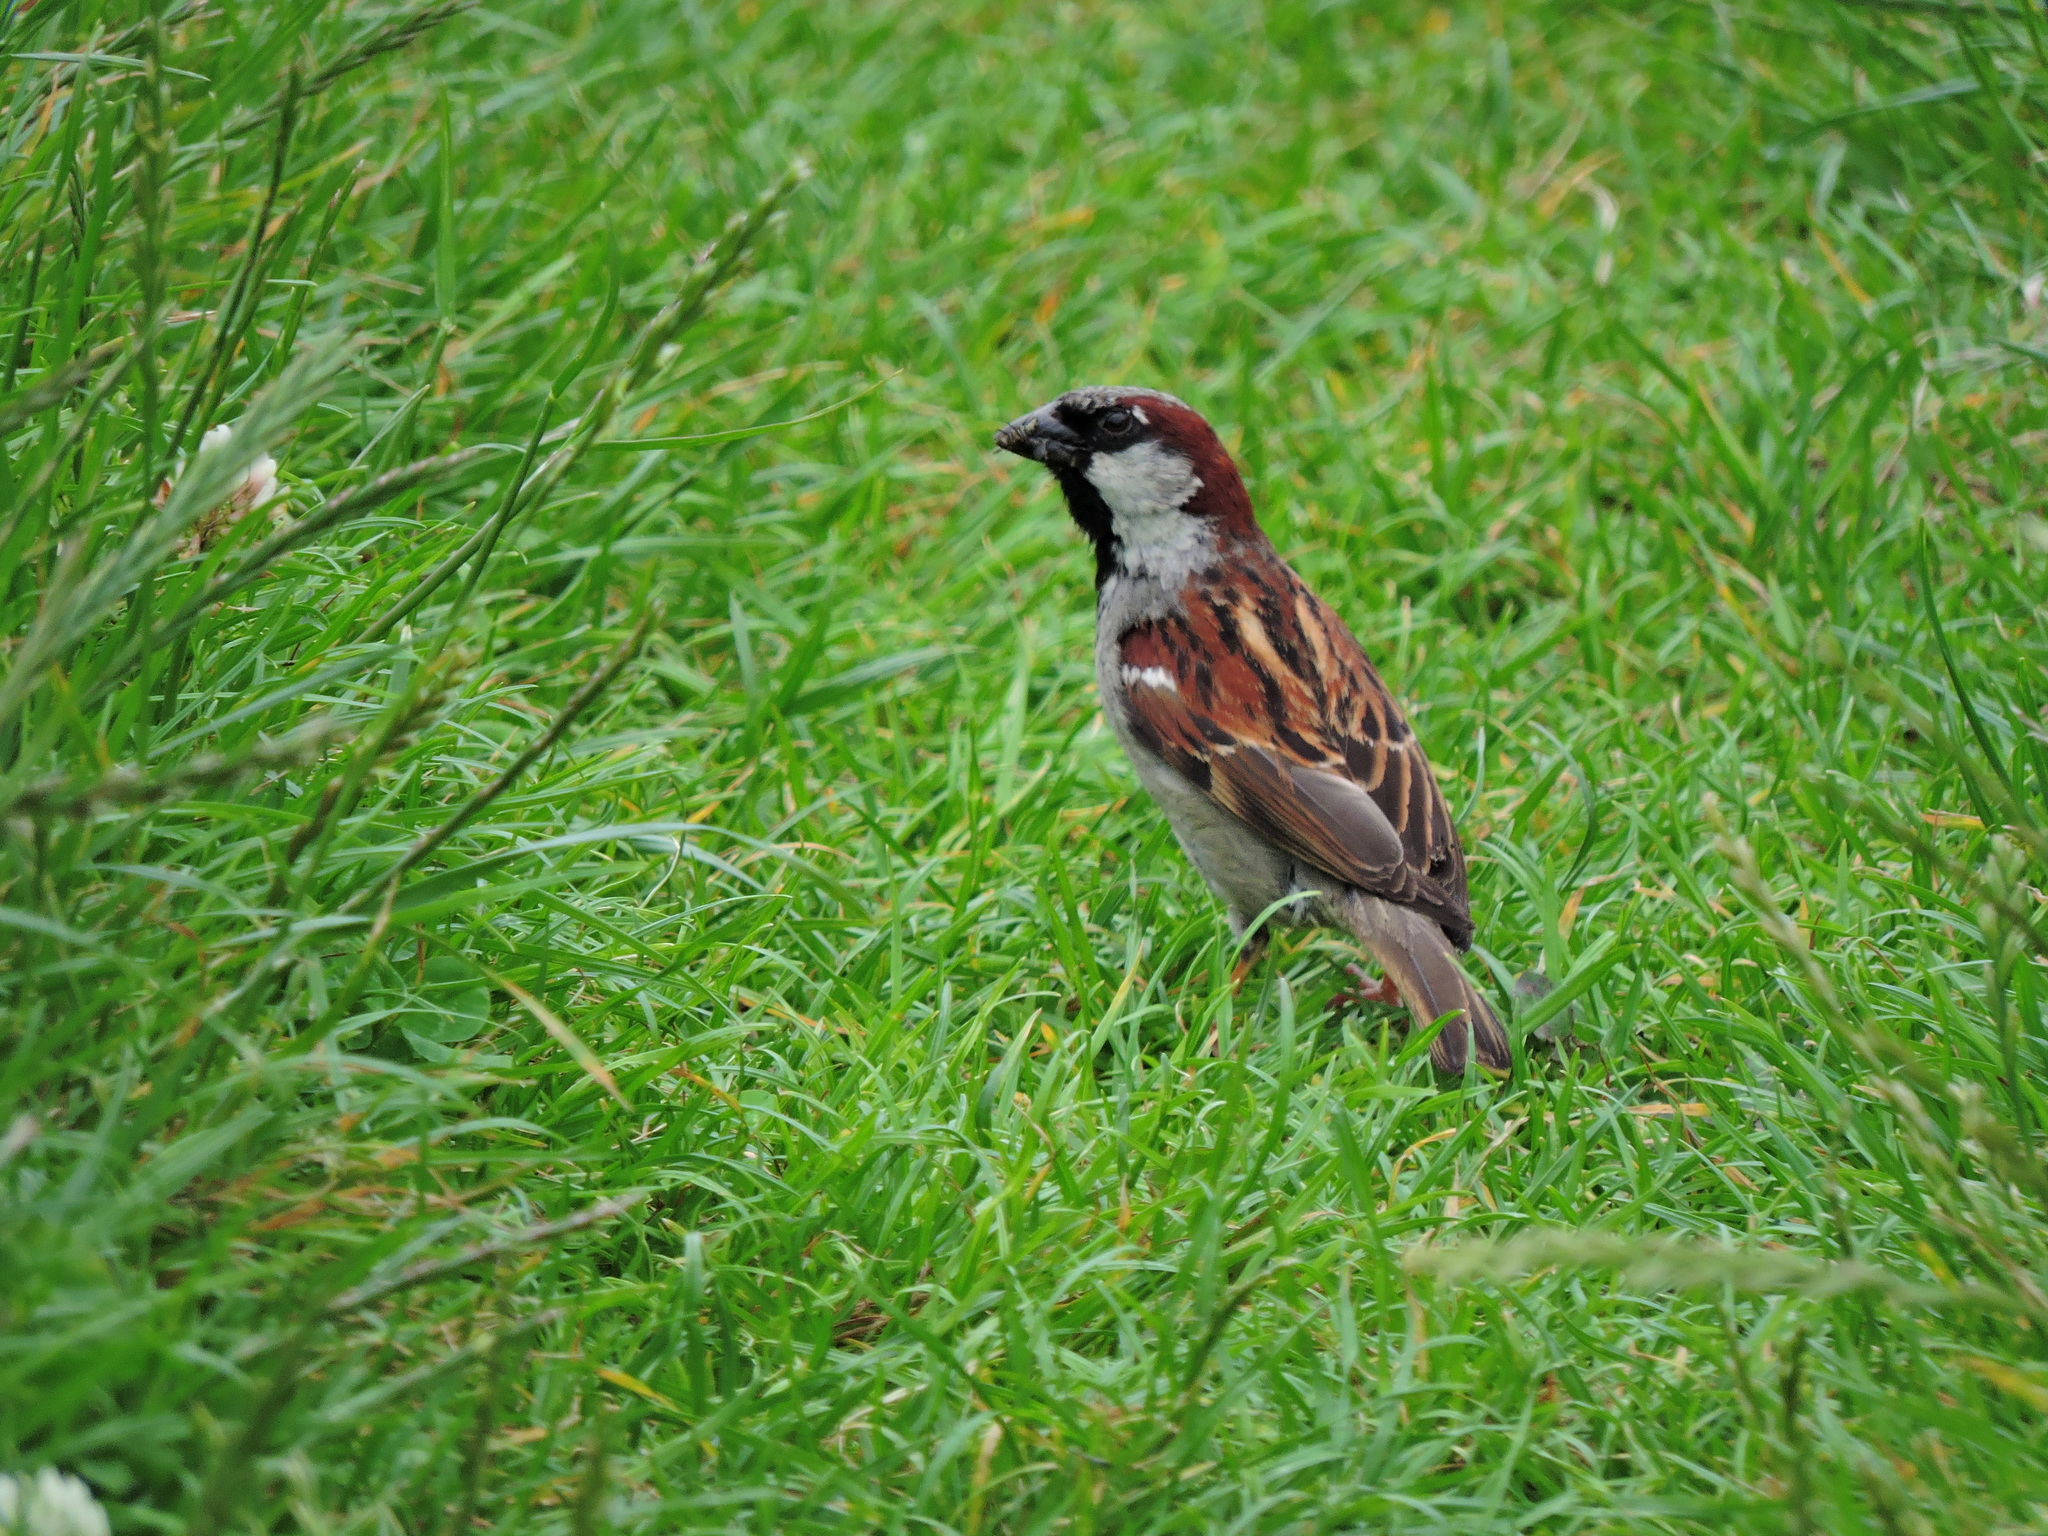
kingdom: Animalia
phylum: Chordata
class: Aves
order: Passeriformes
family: Passeridae
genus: Passer
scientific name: Passer domesticus
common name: House sparrow
